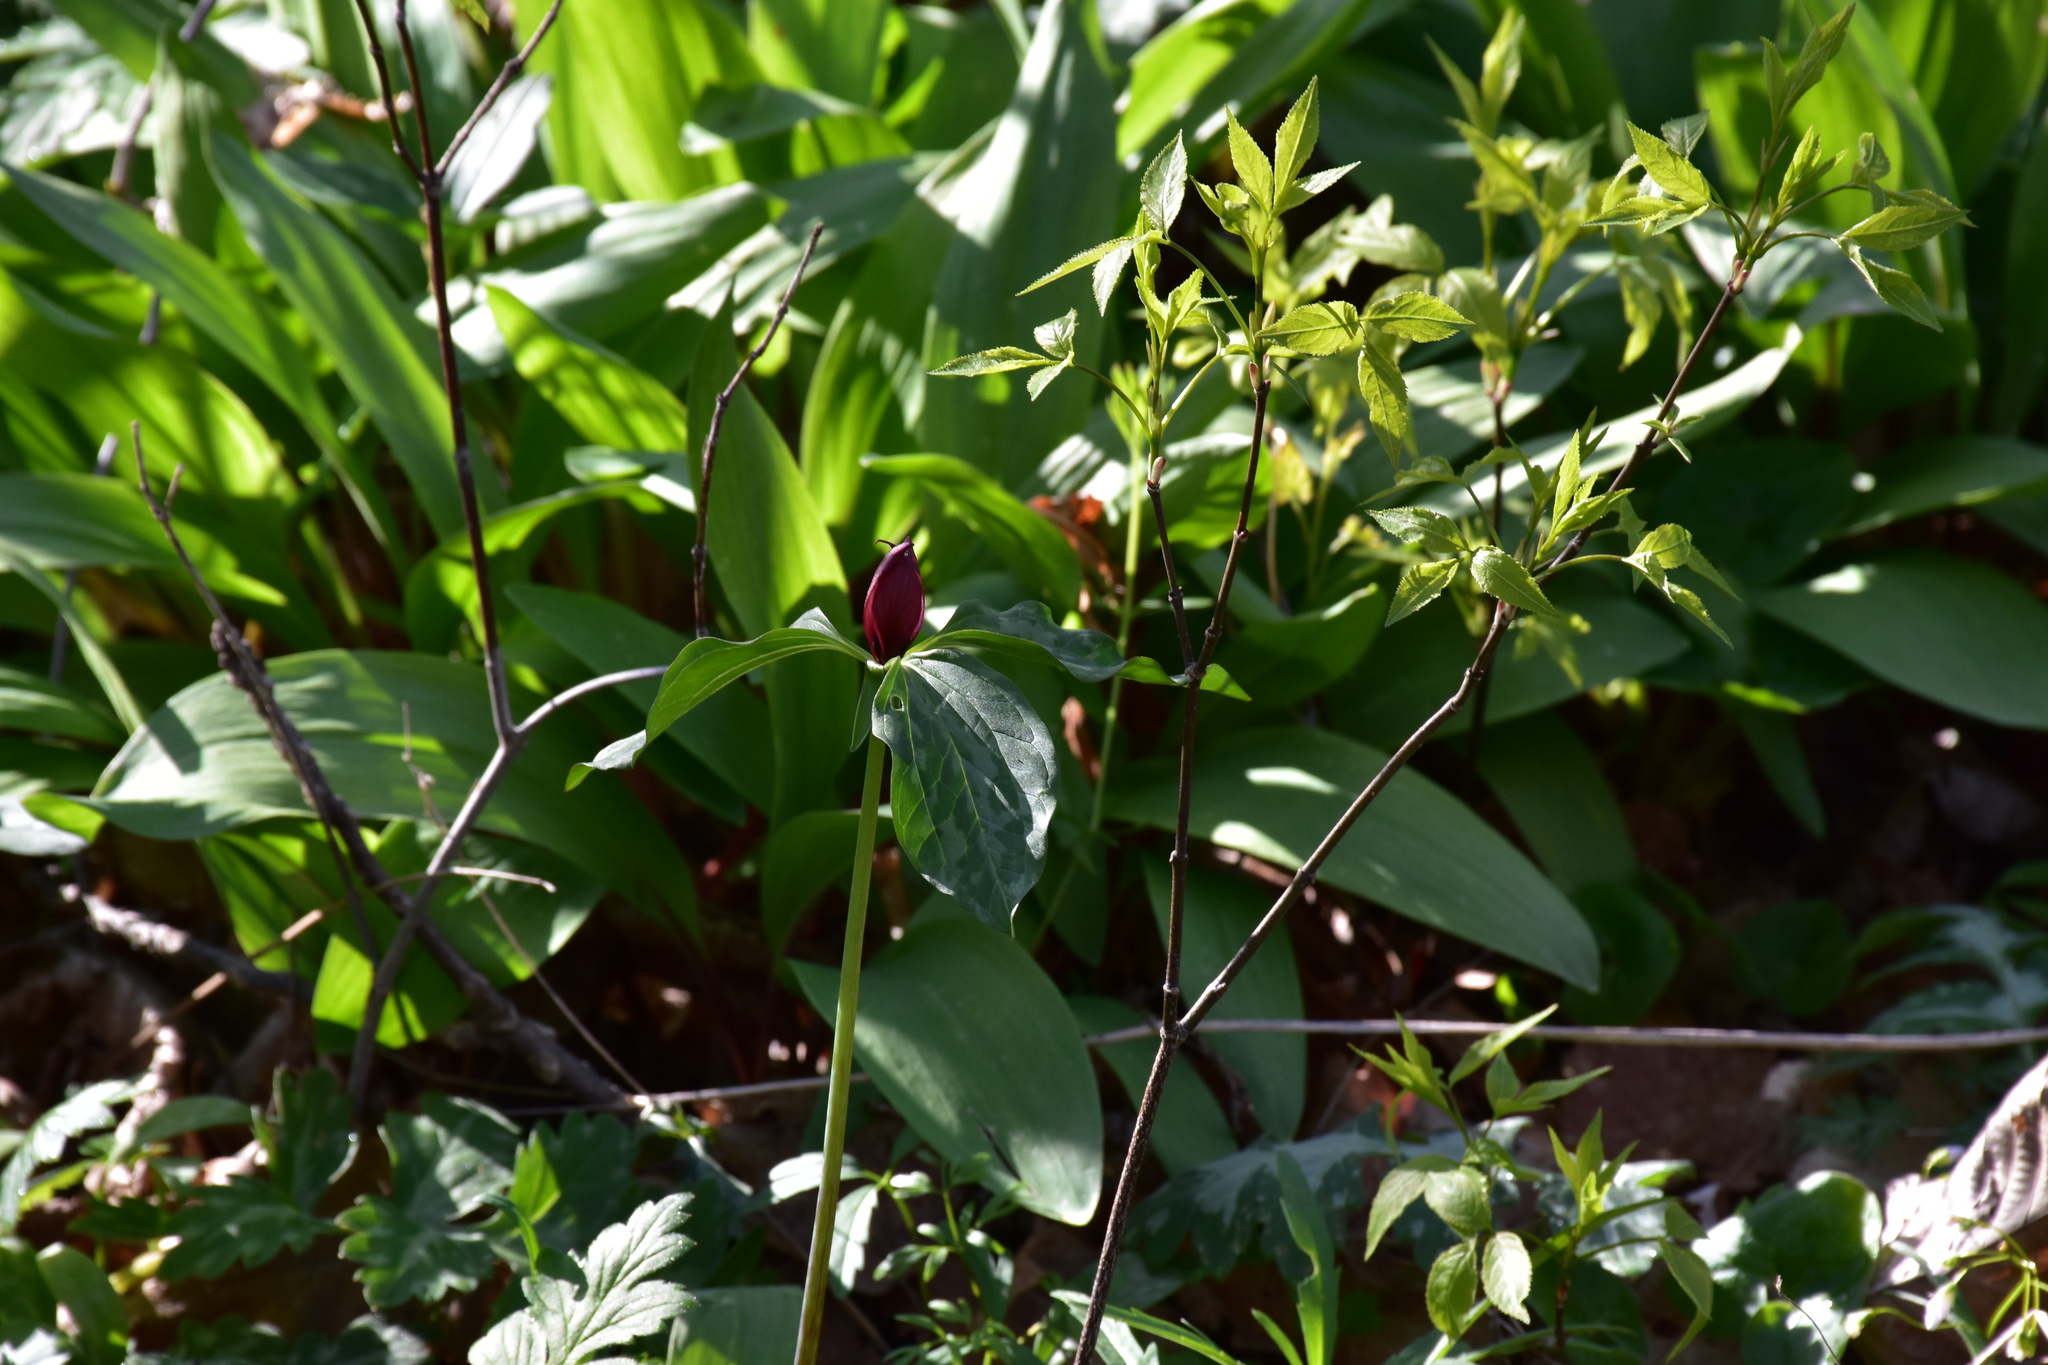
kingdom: Plantae
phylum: Tracheophyta
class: Liliopsida
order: Liliales
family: Melanthiaceae
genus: Trillium
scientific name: Trillium recurvatum
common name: Bloody butcher
